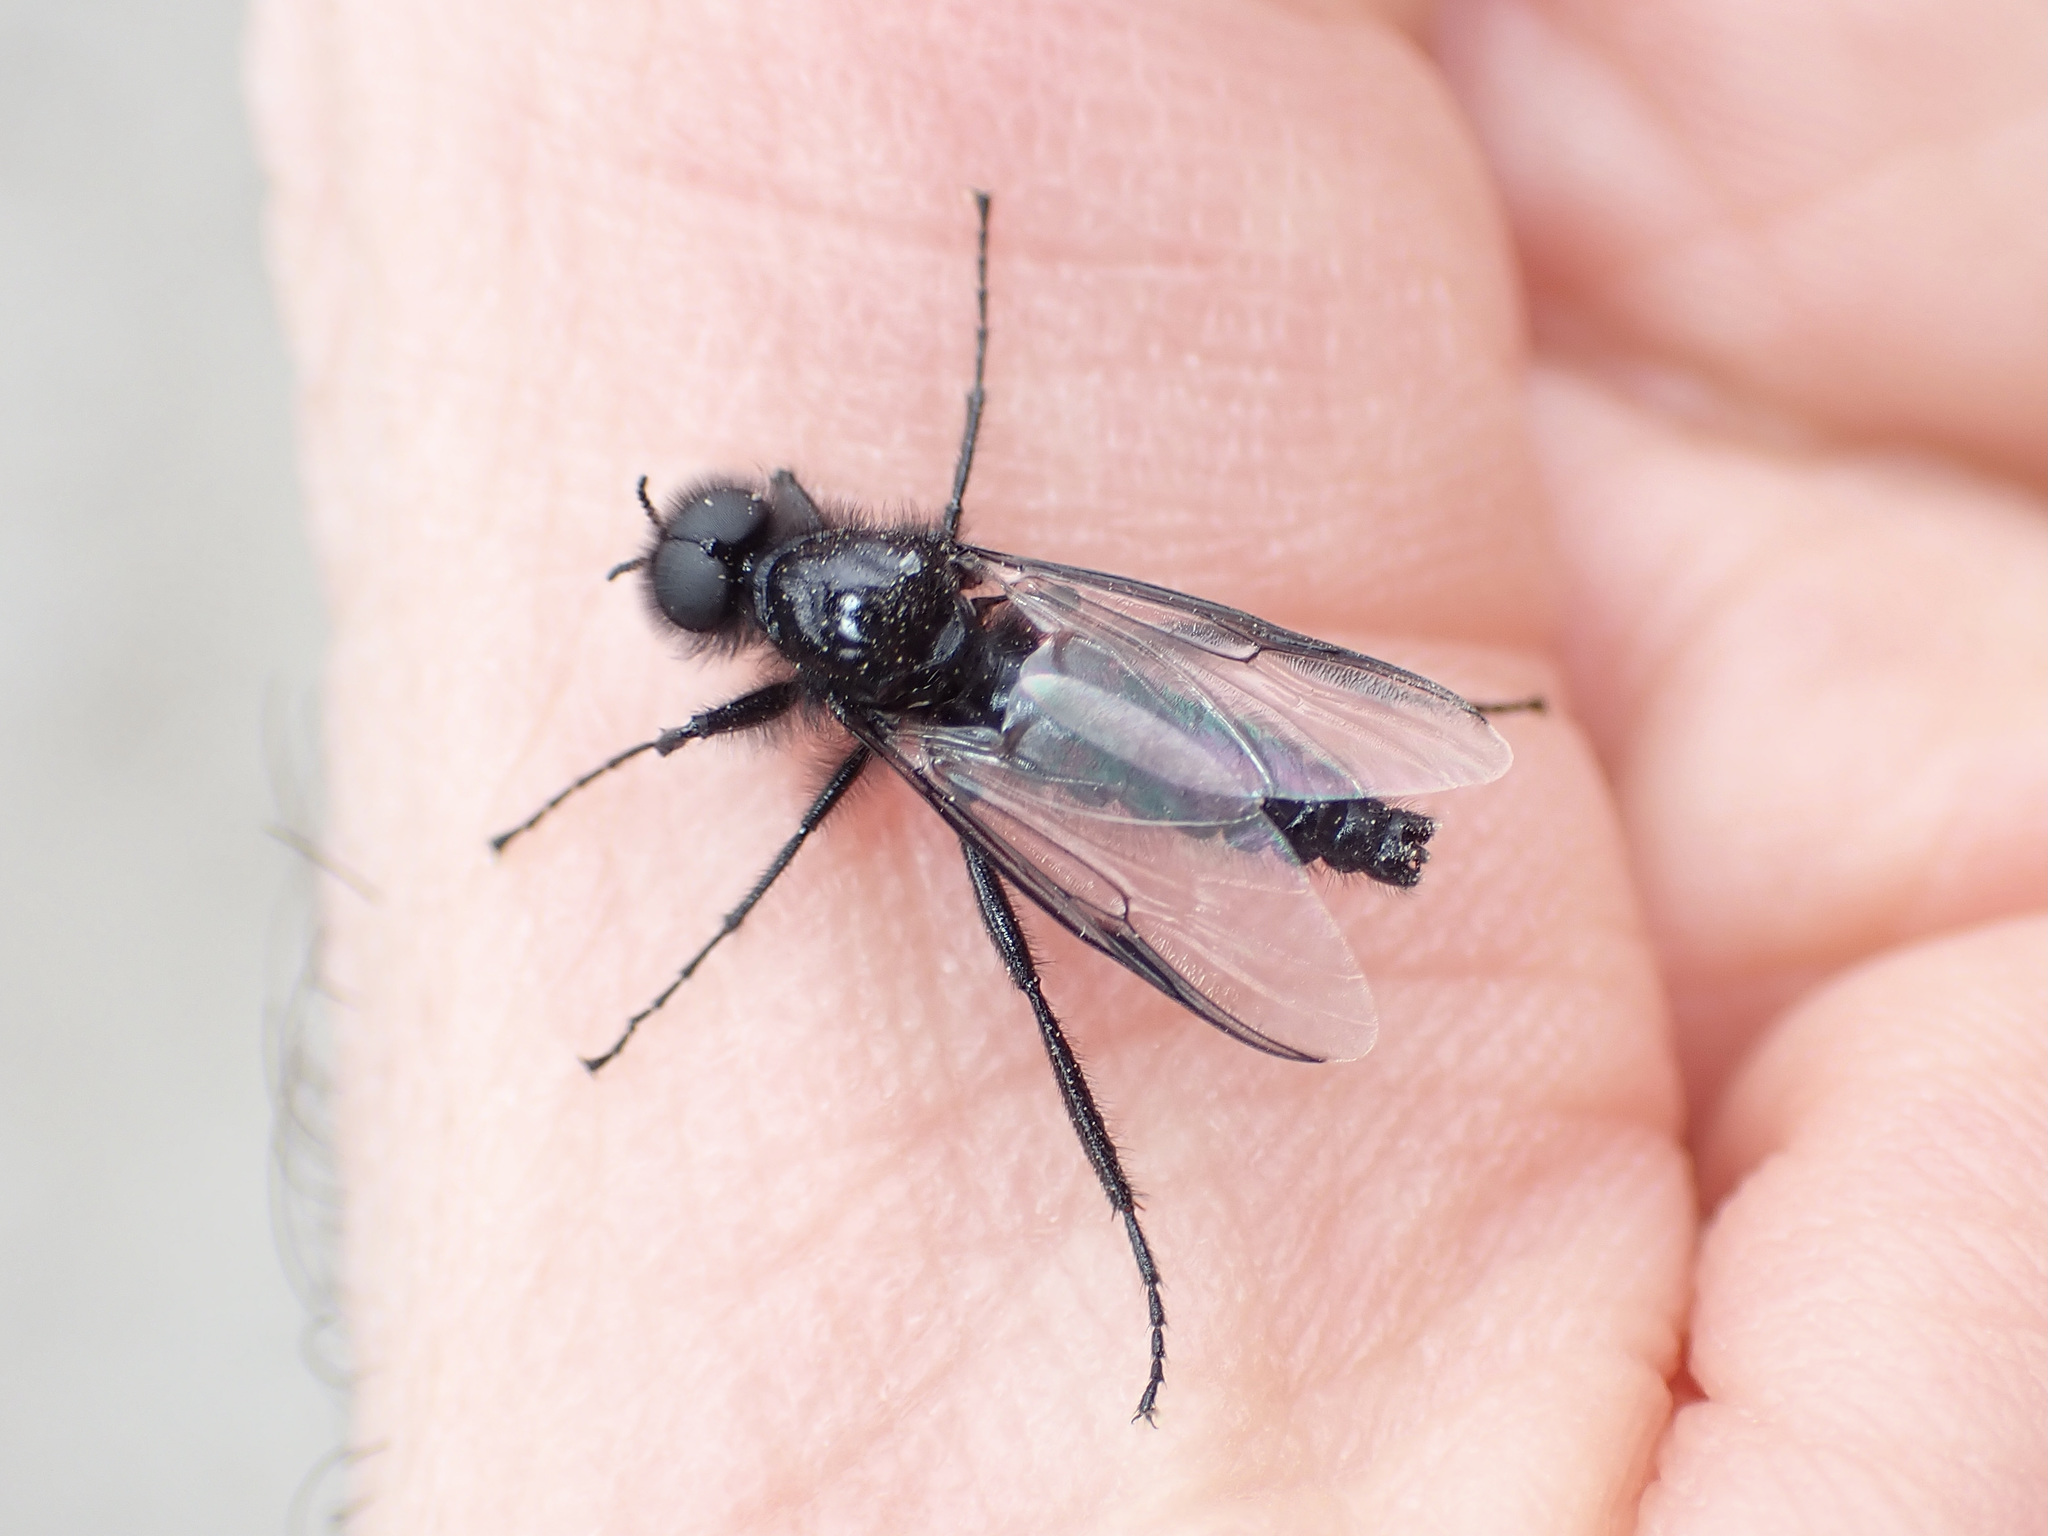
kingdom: Animalia
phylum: Arthropoda
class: Insecta
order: Diptera
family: Bibionidae
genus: Bibio
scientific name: Bibio marci
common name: St marks fly
